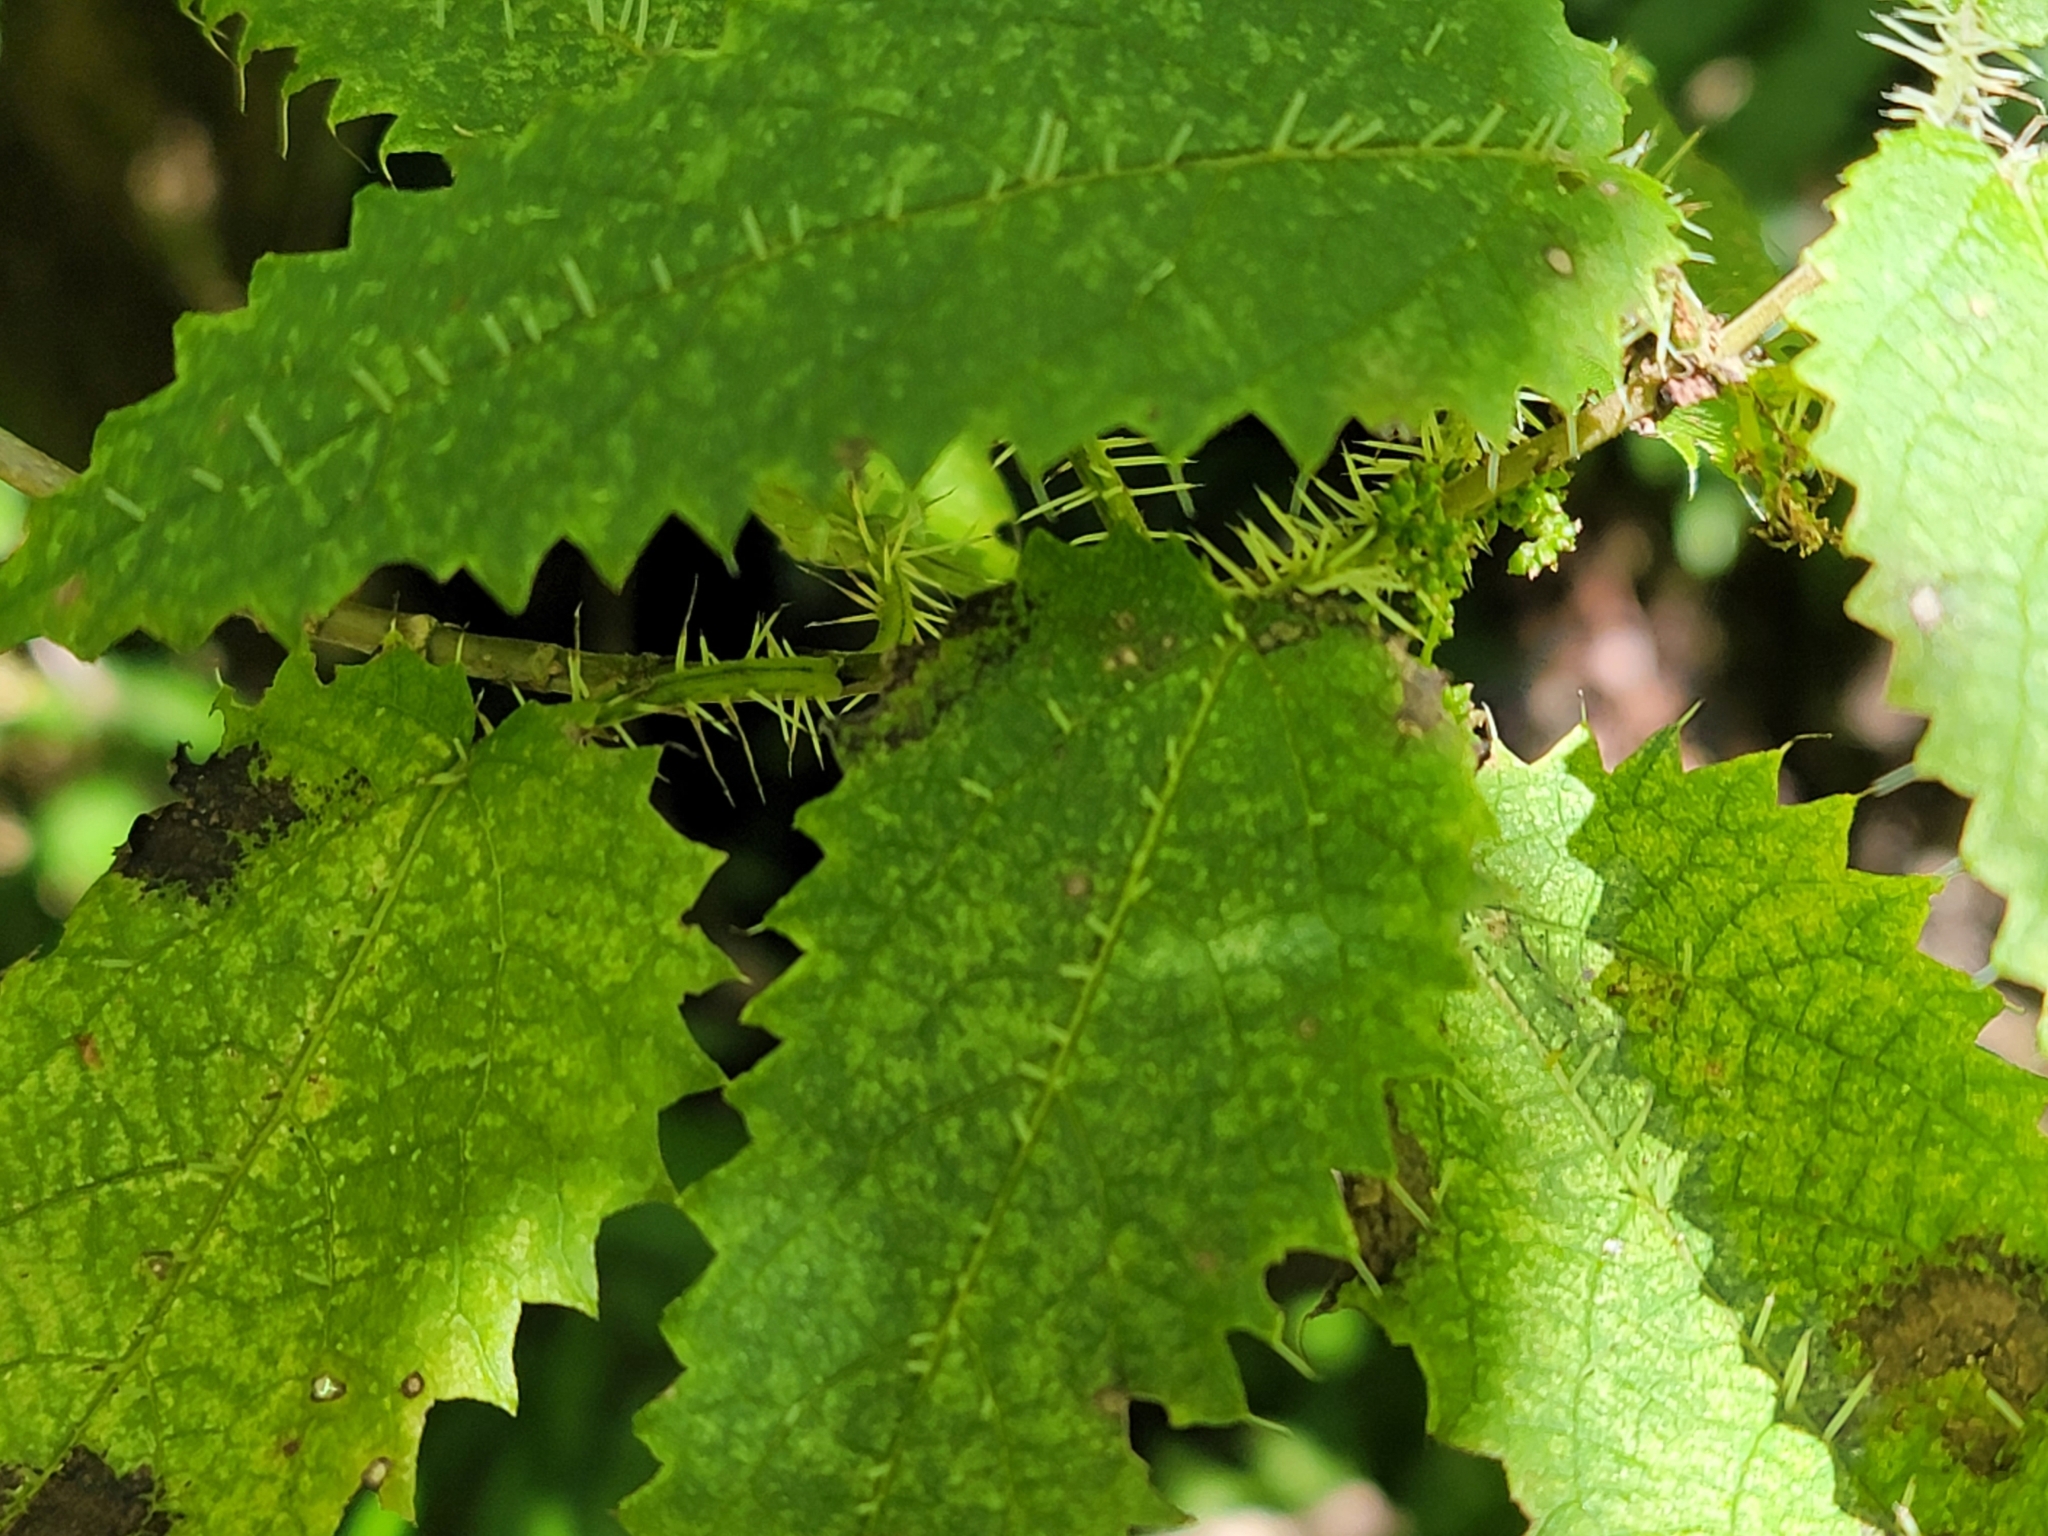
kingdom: Plantae
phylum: Tracheophyta
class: Magnoliopsida
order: Rosales
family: Urticaceae
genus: Urtica
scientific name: Urtica ferox
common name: Tree nettle
